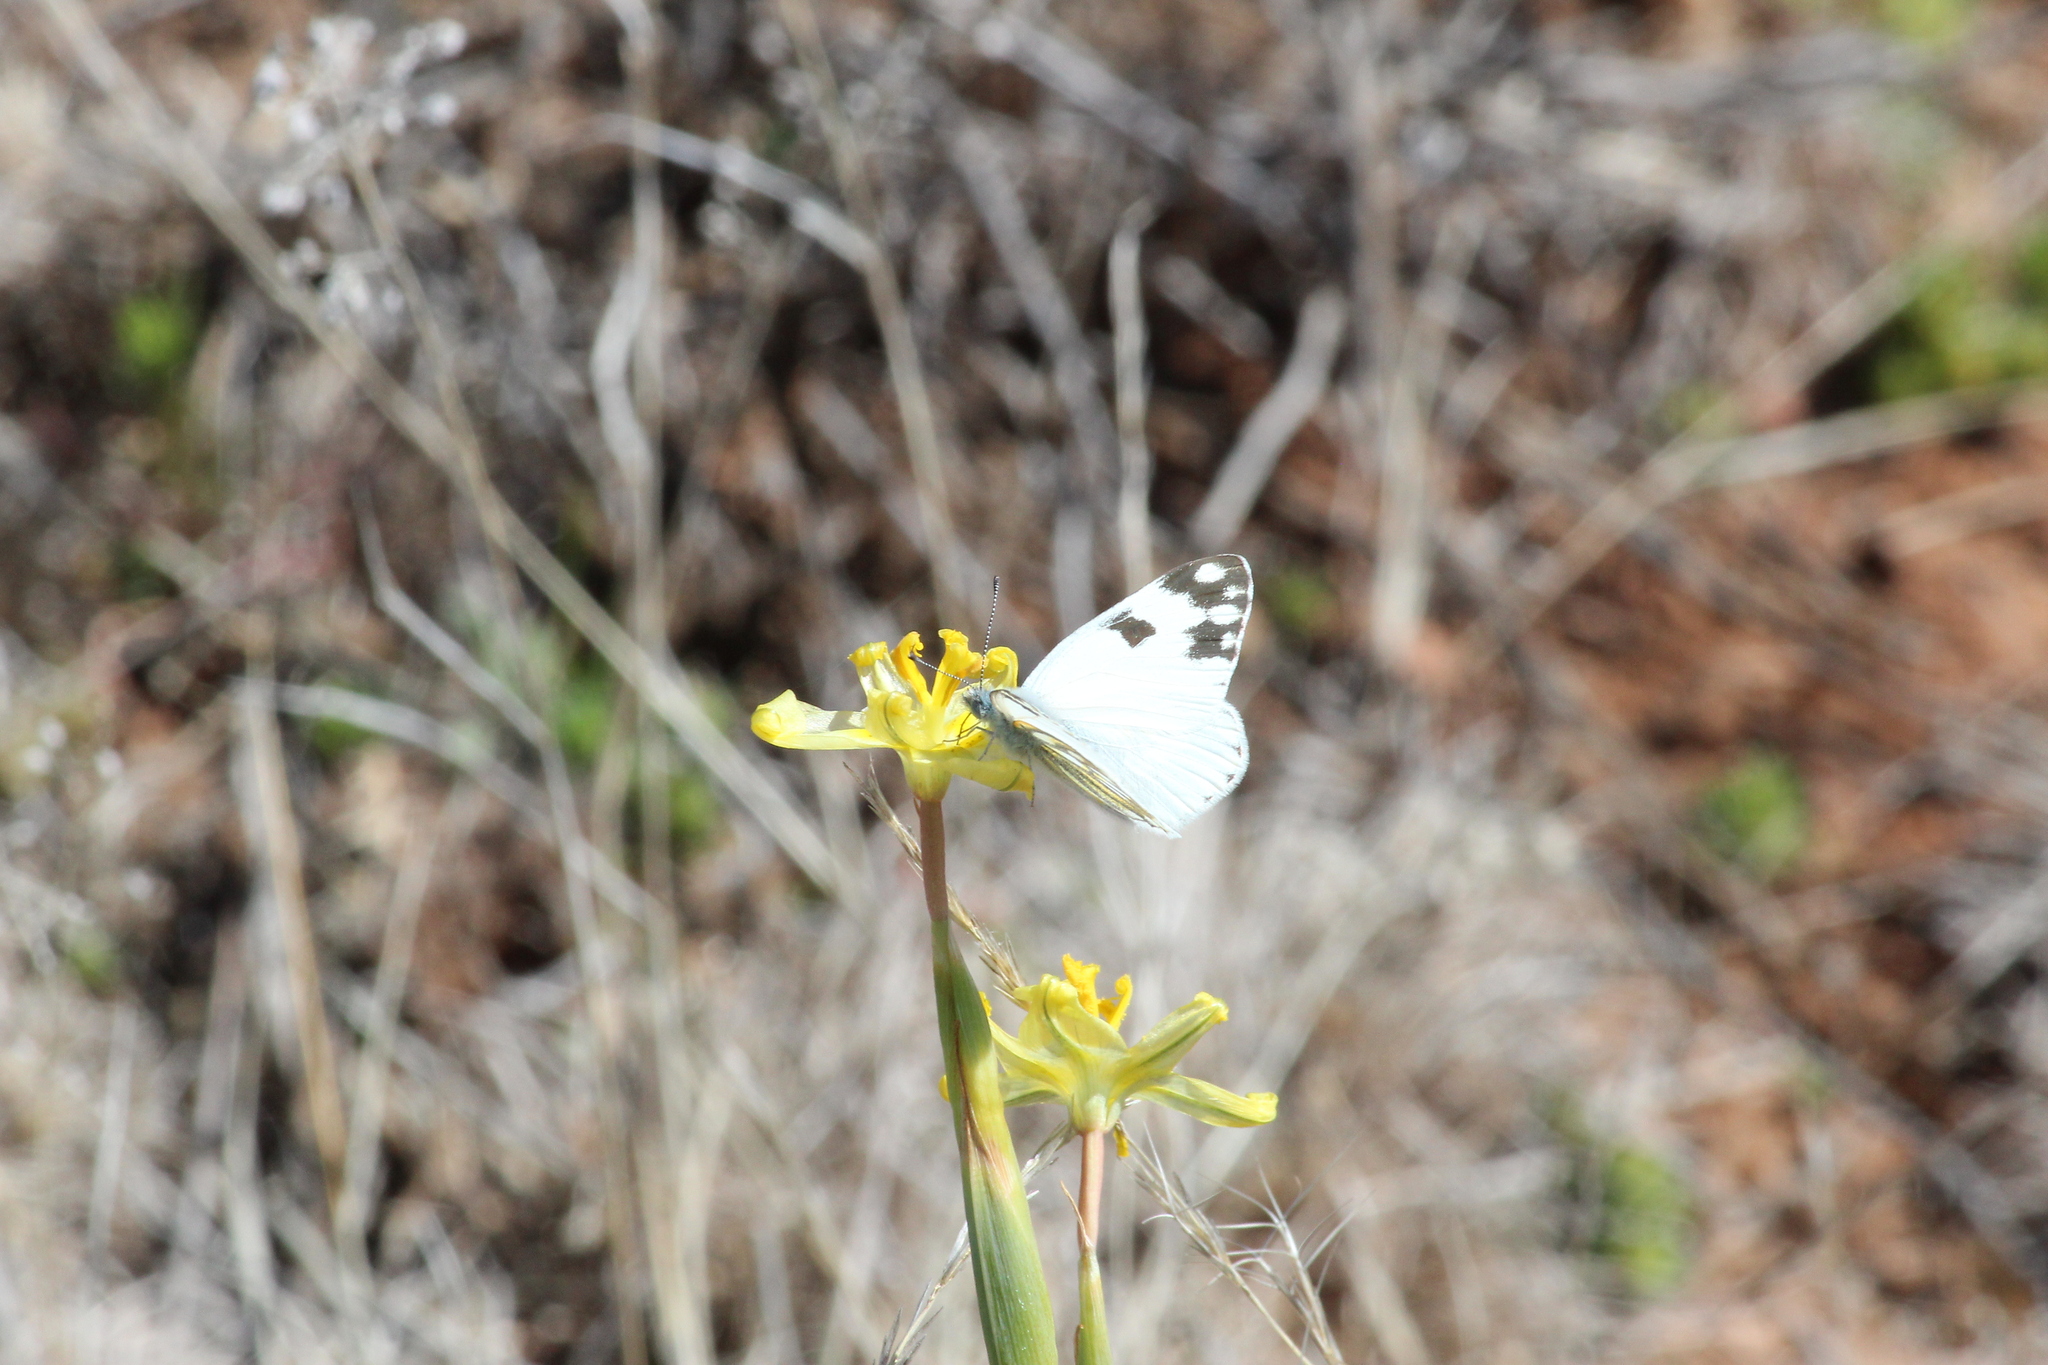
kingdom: Animalia
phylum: Arthropoda
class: Insecta
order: Lepidoptera
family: Pieridae
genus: Pontia
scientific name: Pontia helice
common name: Meadow white
